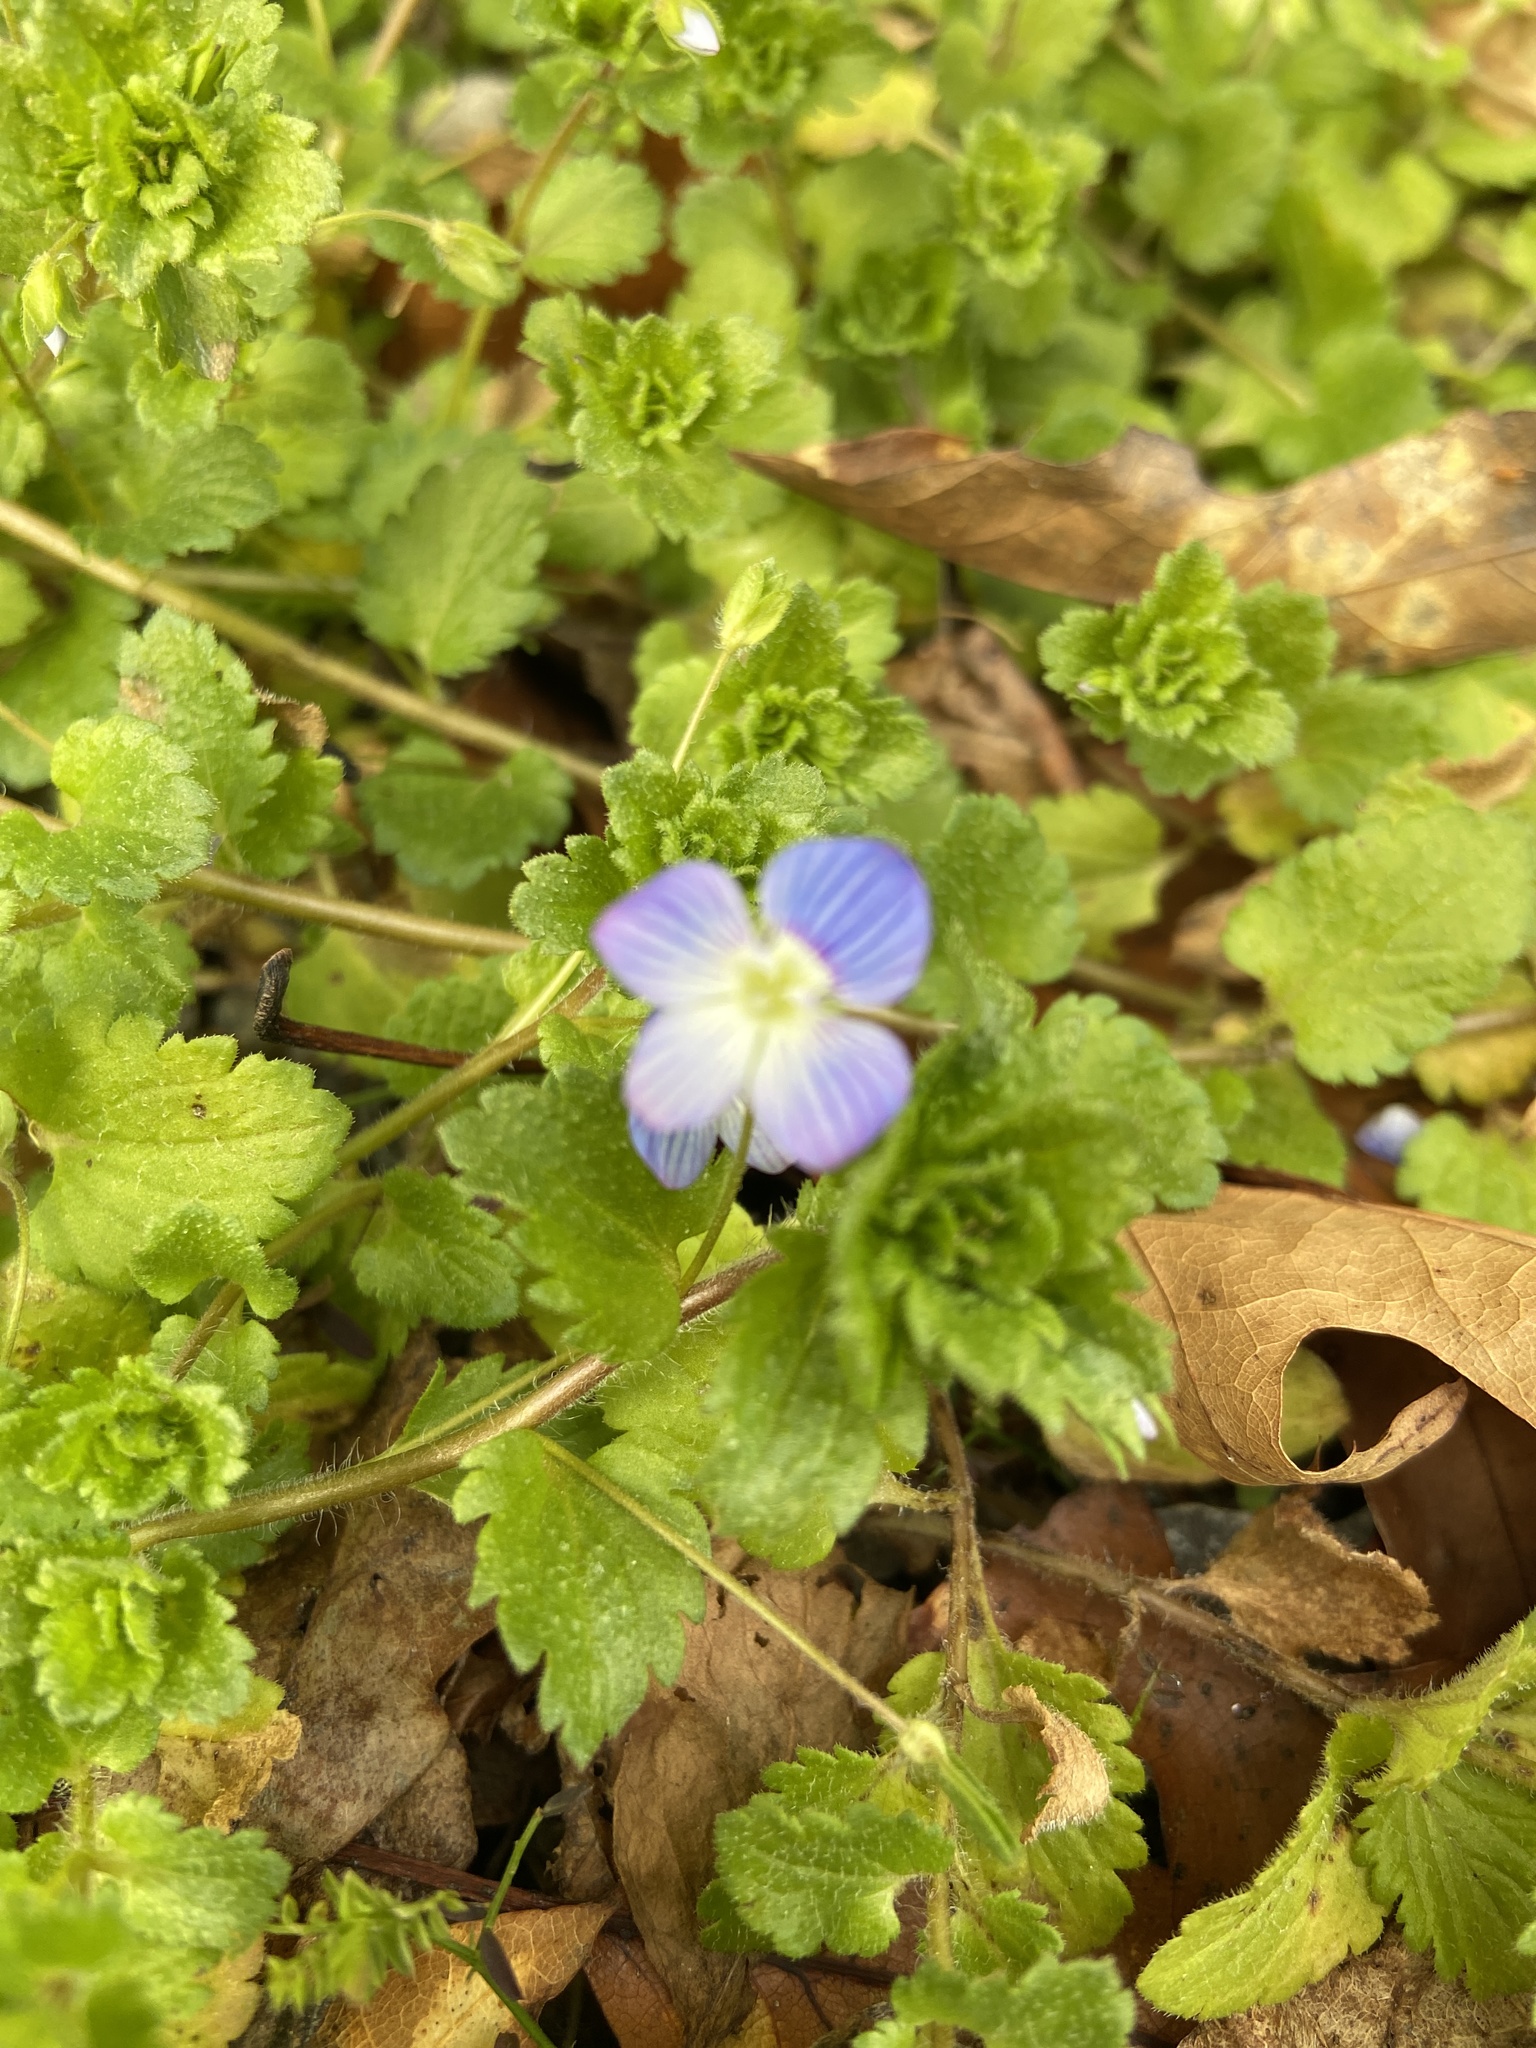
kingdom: Plantae
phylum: Tracheophyta
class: Magnoliopsida
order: Lamiales
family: Plantaginaceae
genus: Veronica
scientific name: Veronica persica
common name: Common field-speedwell
